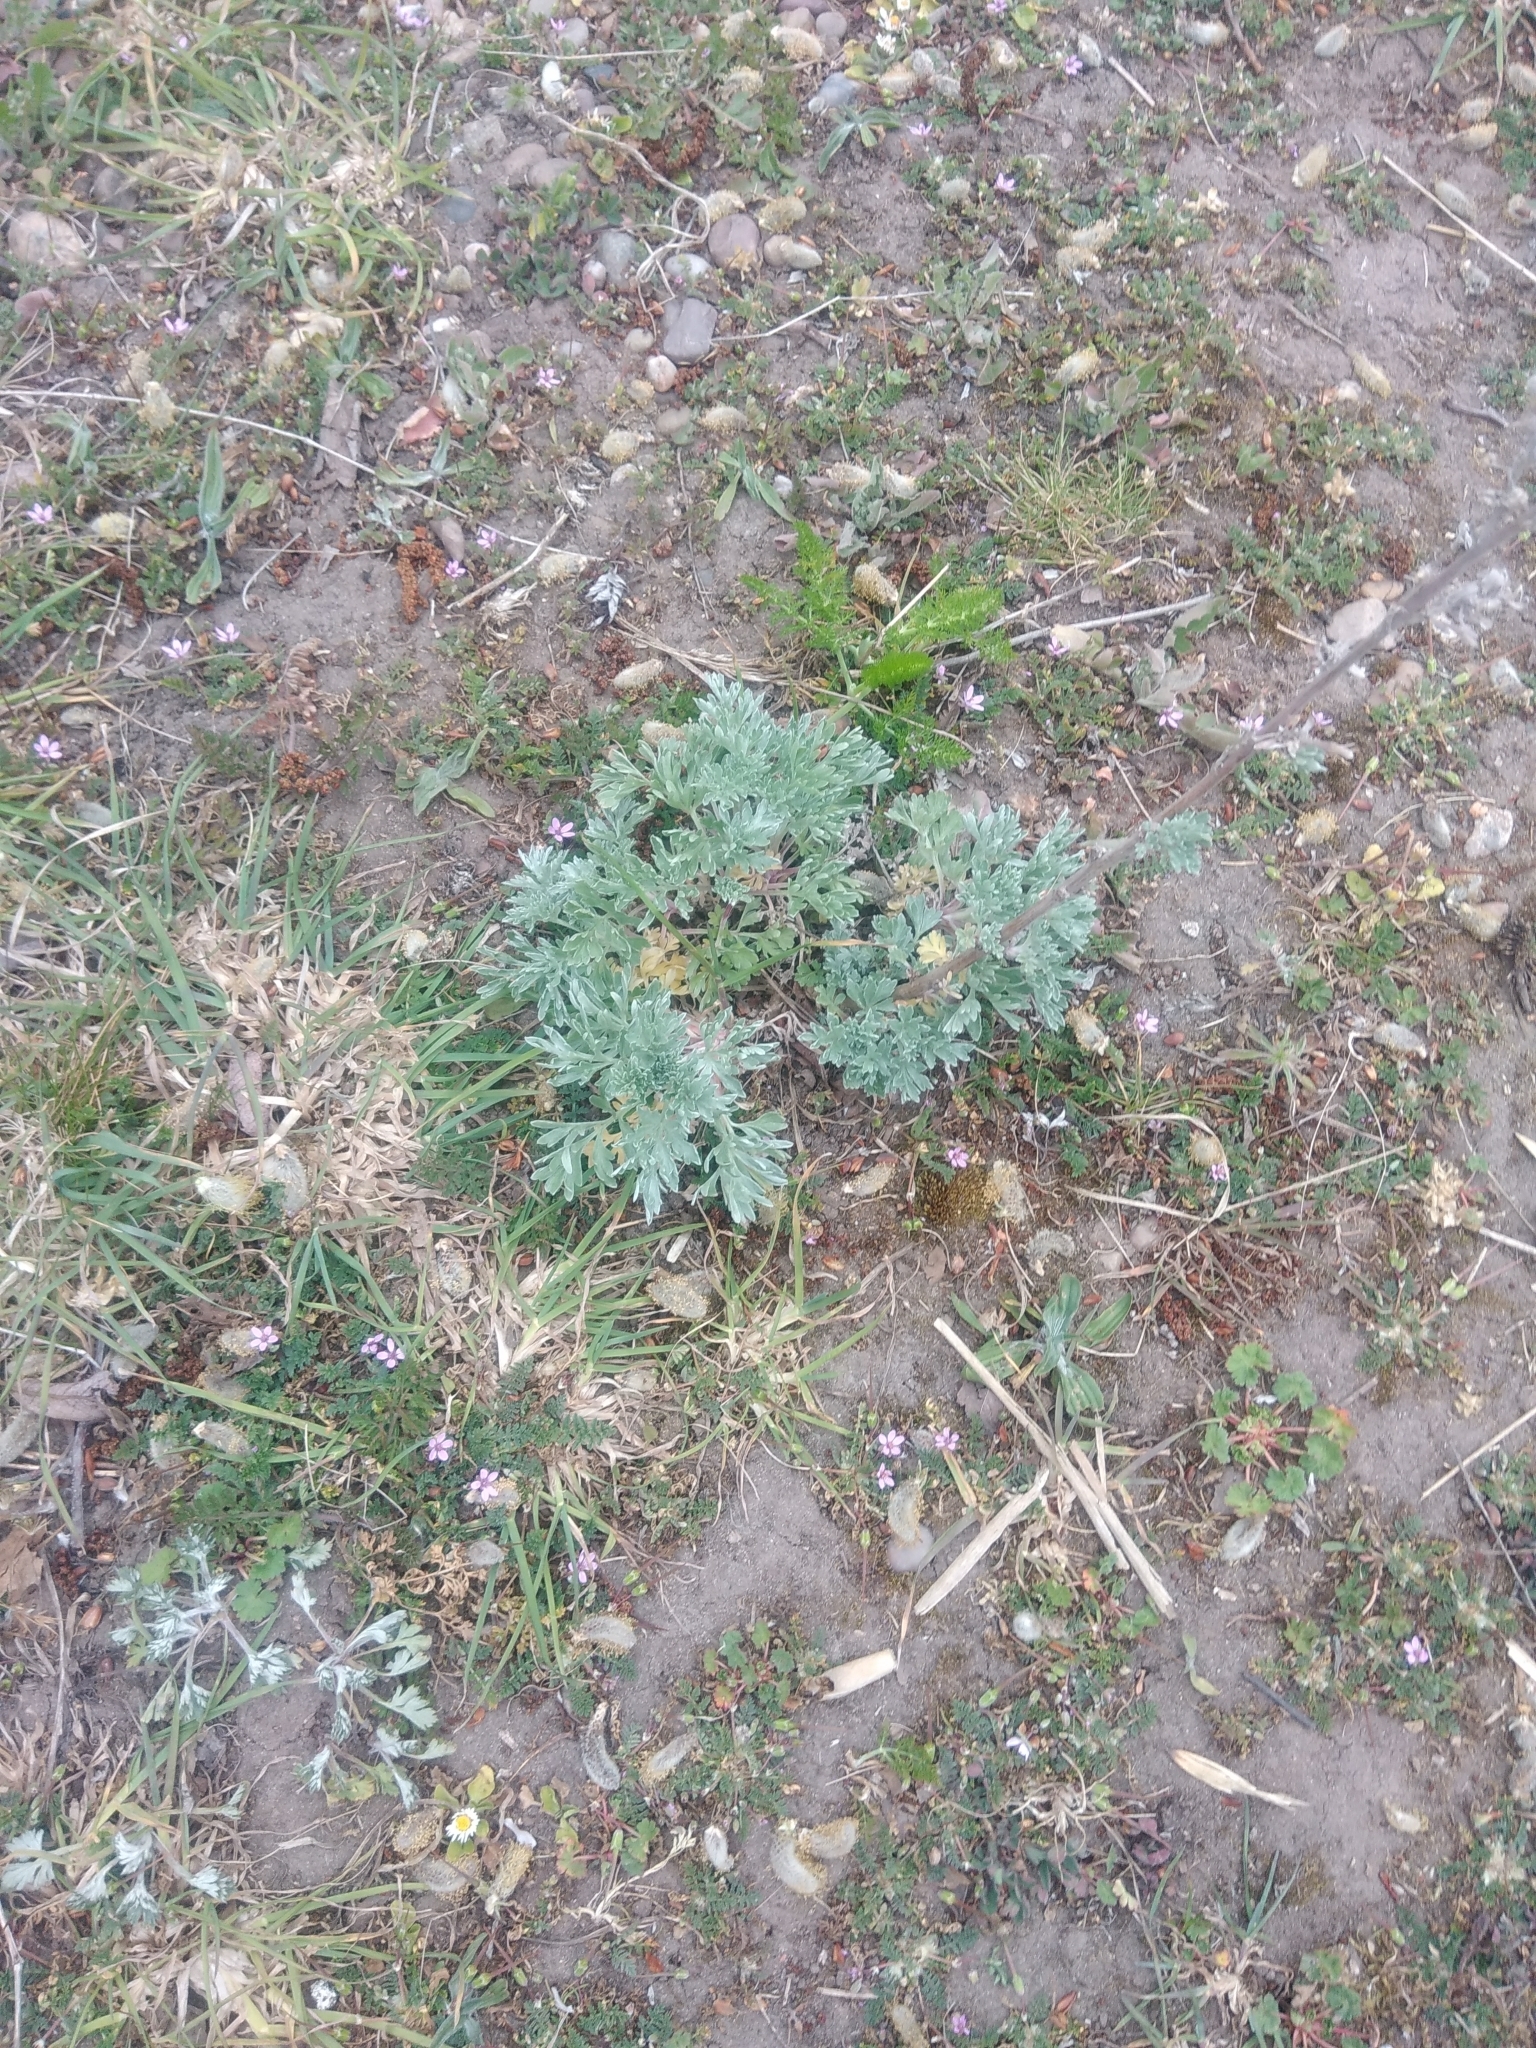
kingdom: Plantae
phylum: Tracheophyta
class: Magnoliopsida
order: Asterales
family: Asteraceae
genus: Artemisia
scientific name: Artemisia absinthium
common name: Wormwood
